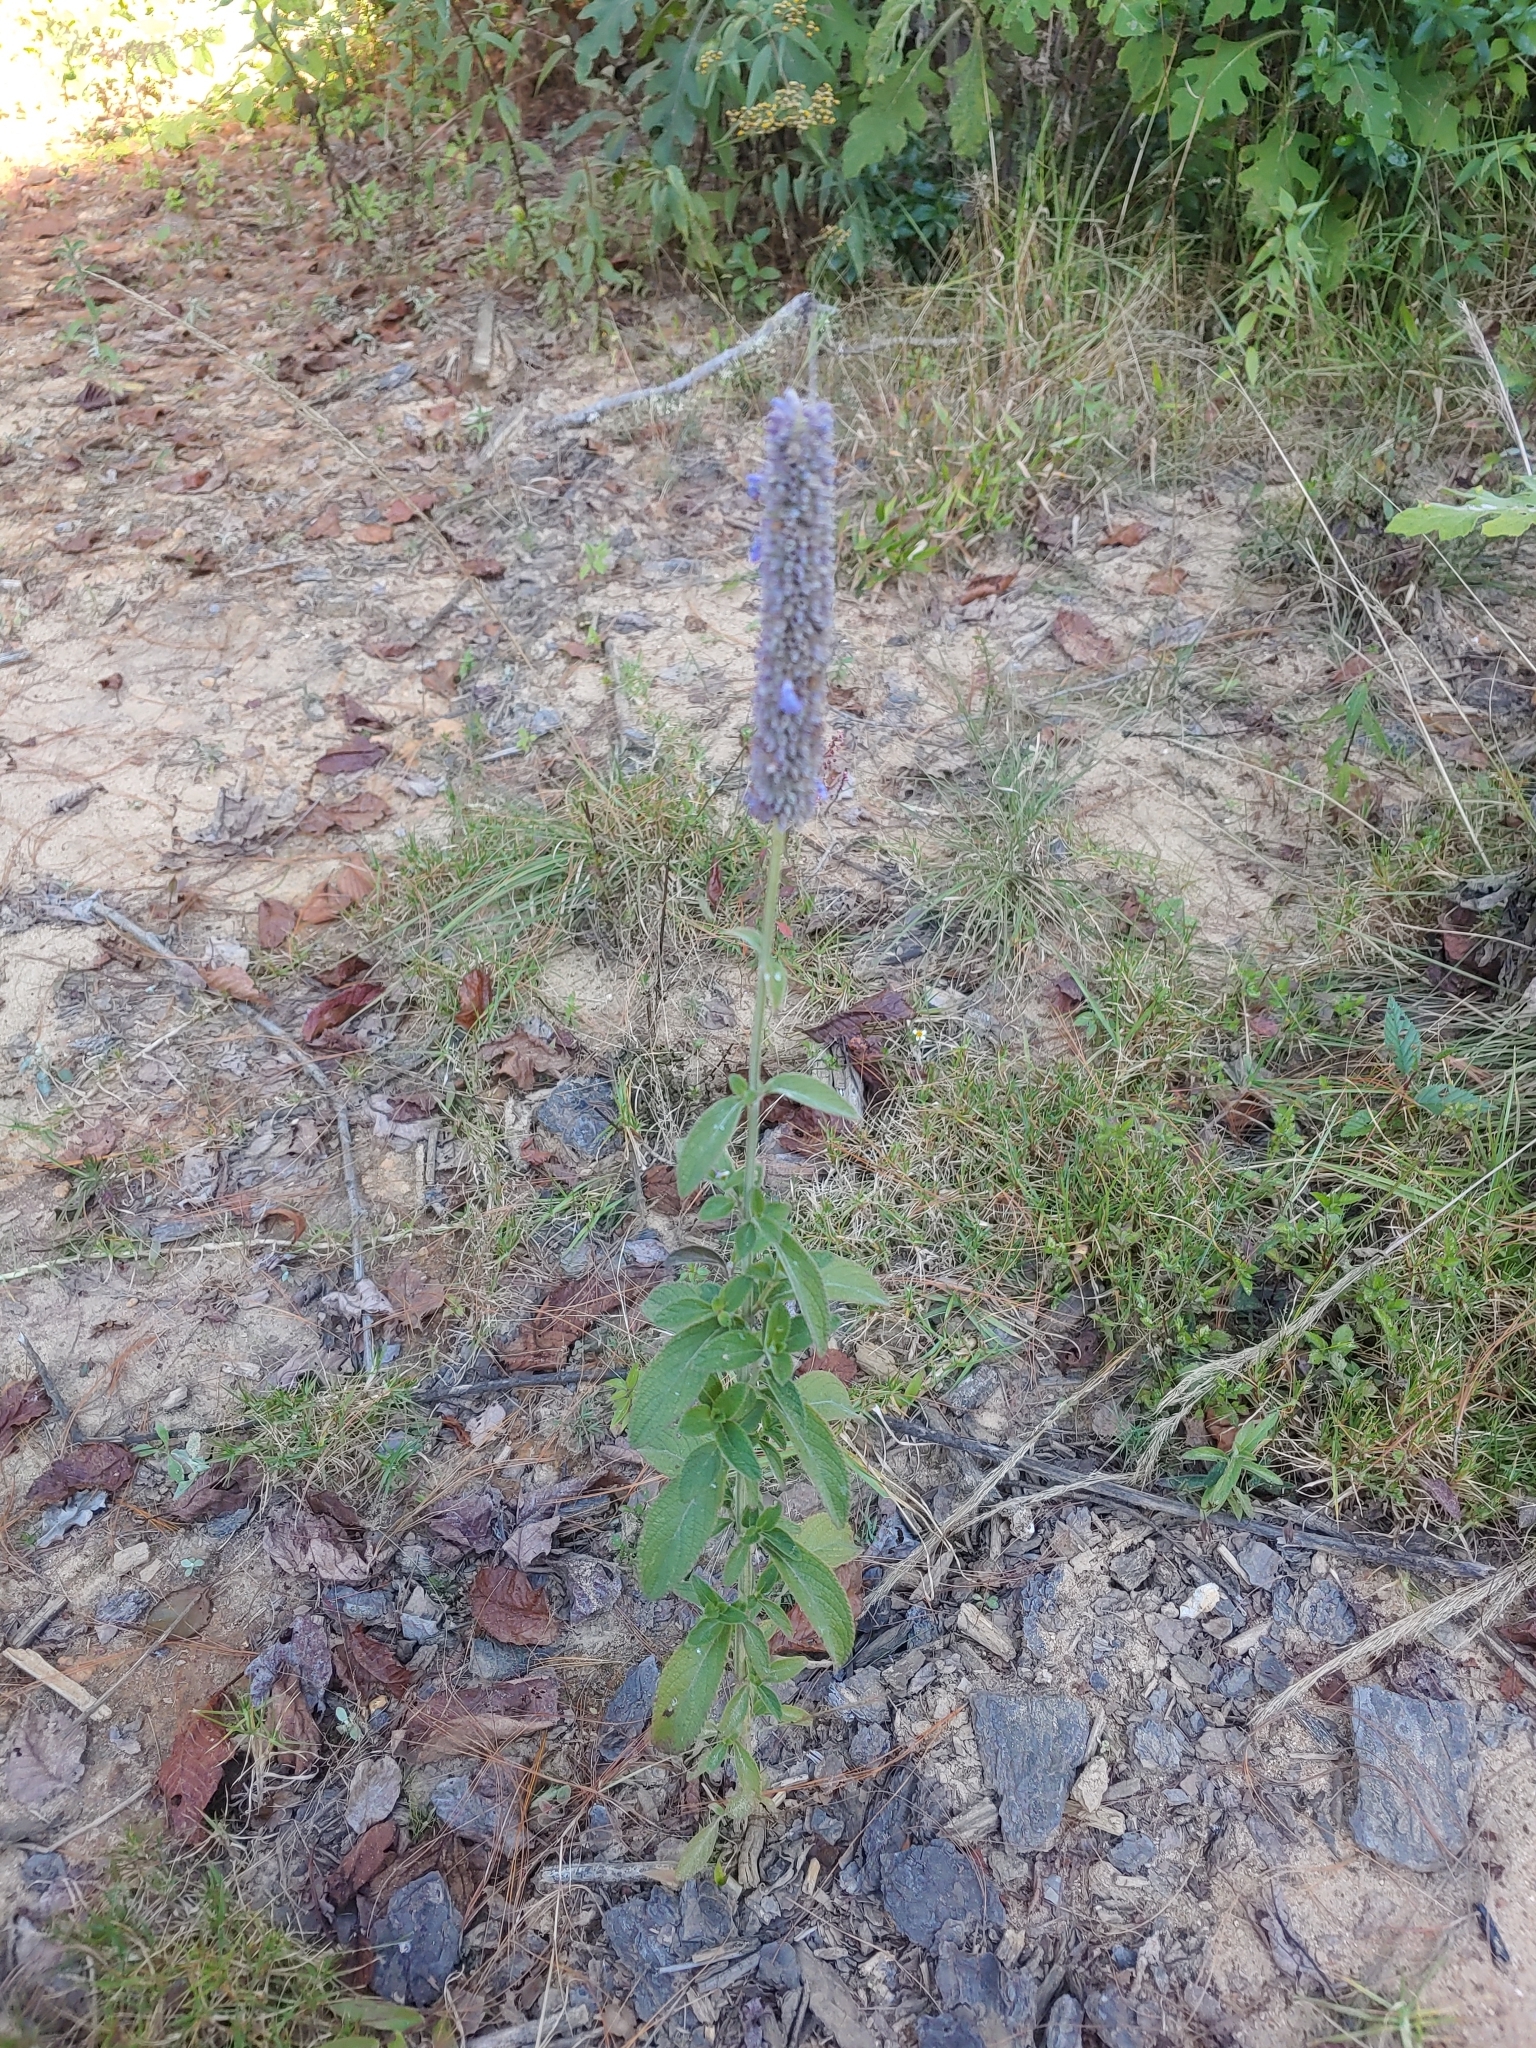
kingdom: Plantae
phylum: Tracheophyta
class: Magnoliopsida
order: Lamiales
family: Lamiaceae
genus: Salvia
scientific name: Salvia lavanduloides
